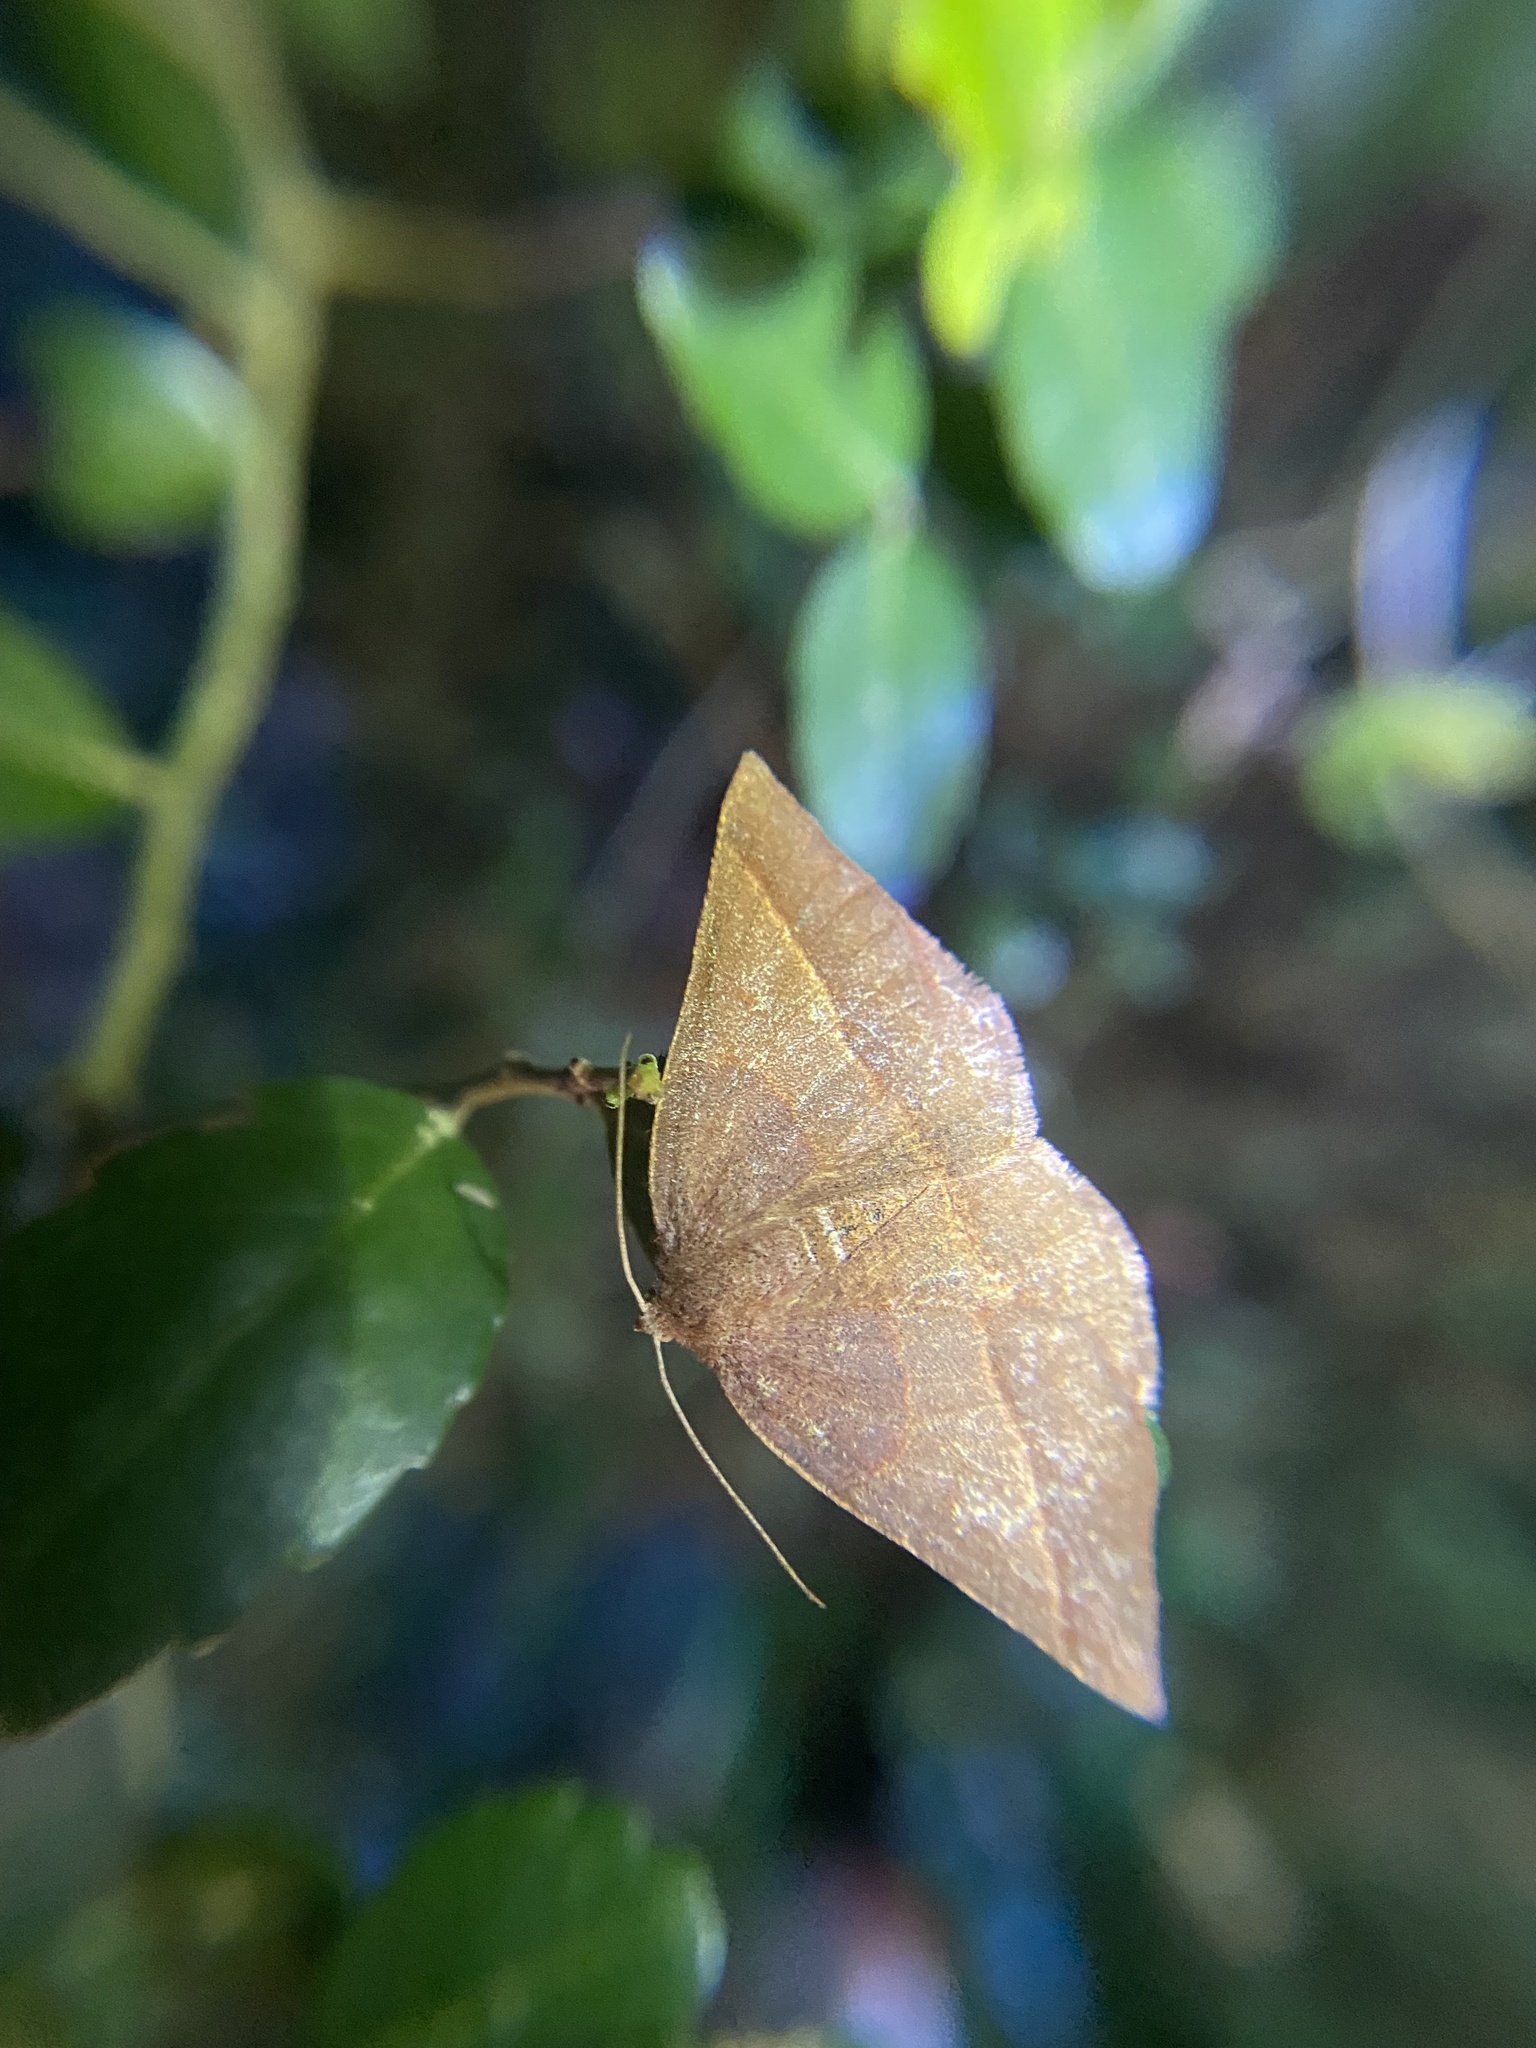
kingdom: Animalia
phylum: Arthropoda
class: Insecta
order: Lepidoptera
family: Geometridae
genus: Metarranthis
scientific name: Metarranthis obfirmaria
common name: Yellow-washed metarranthis
